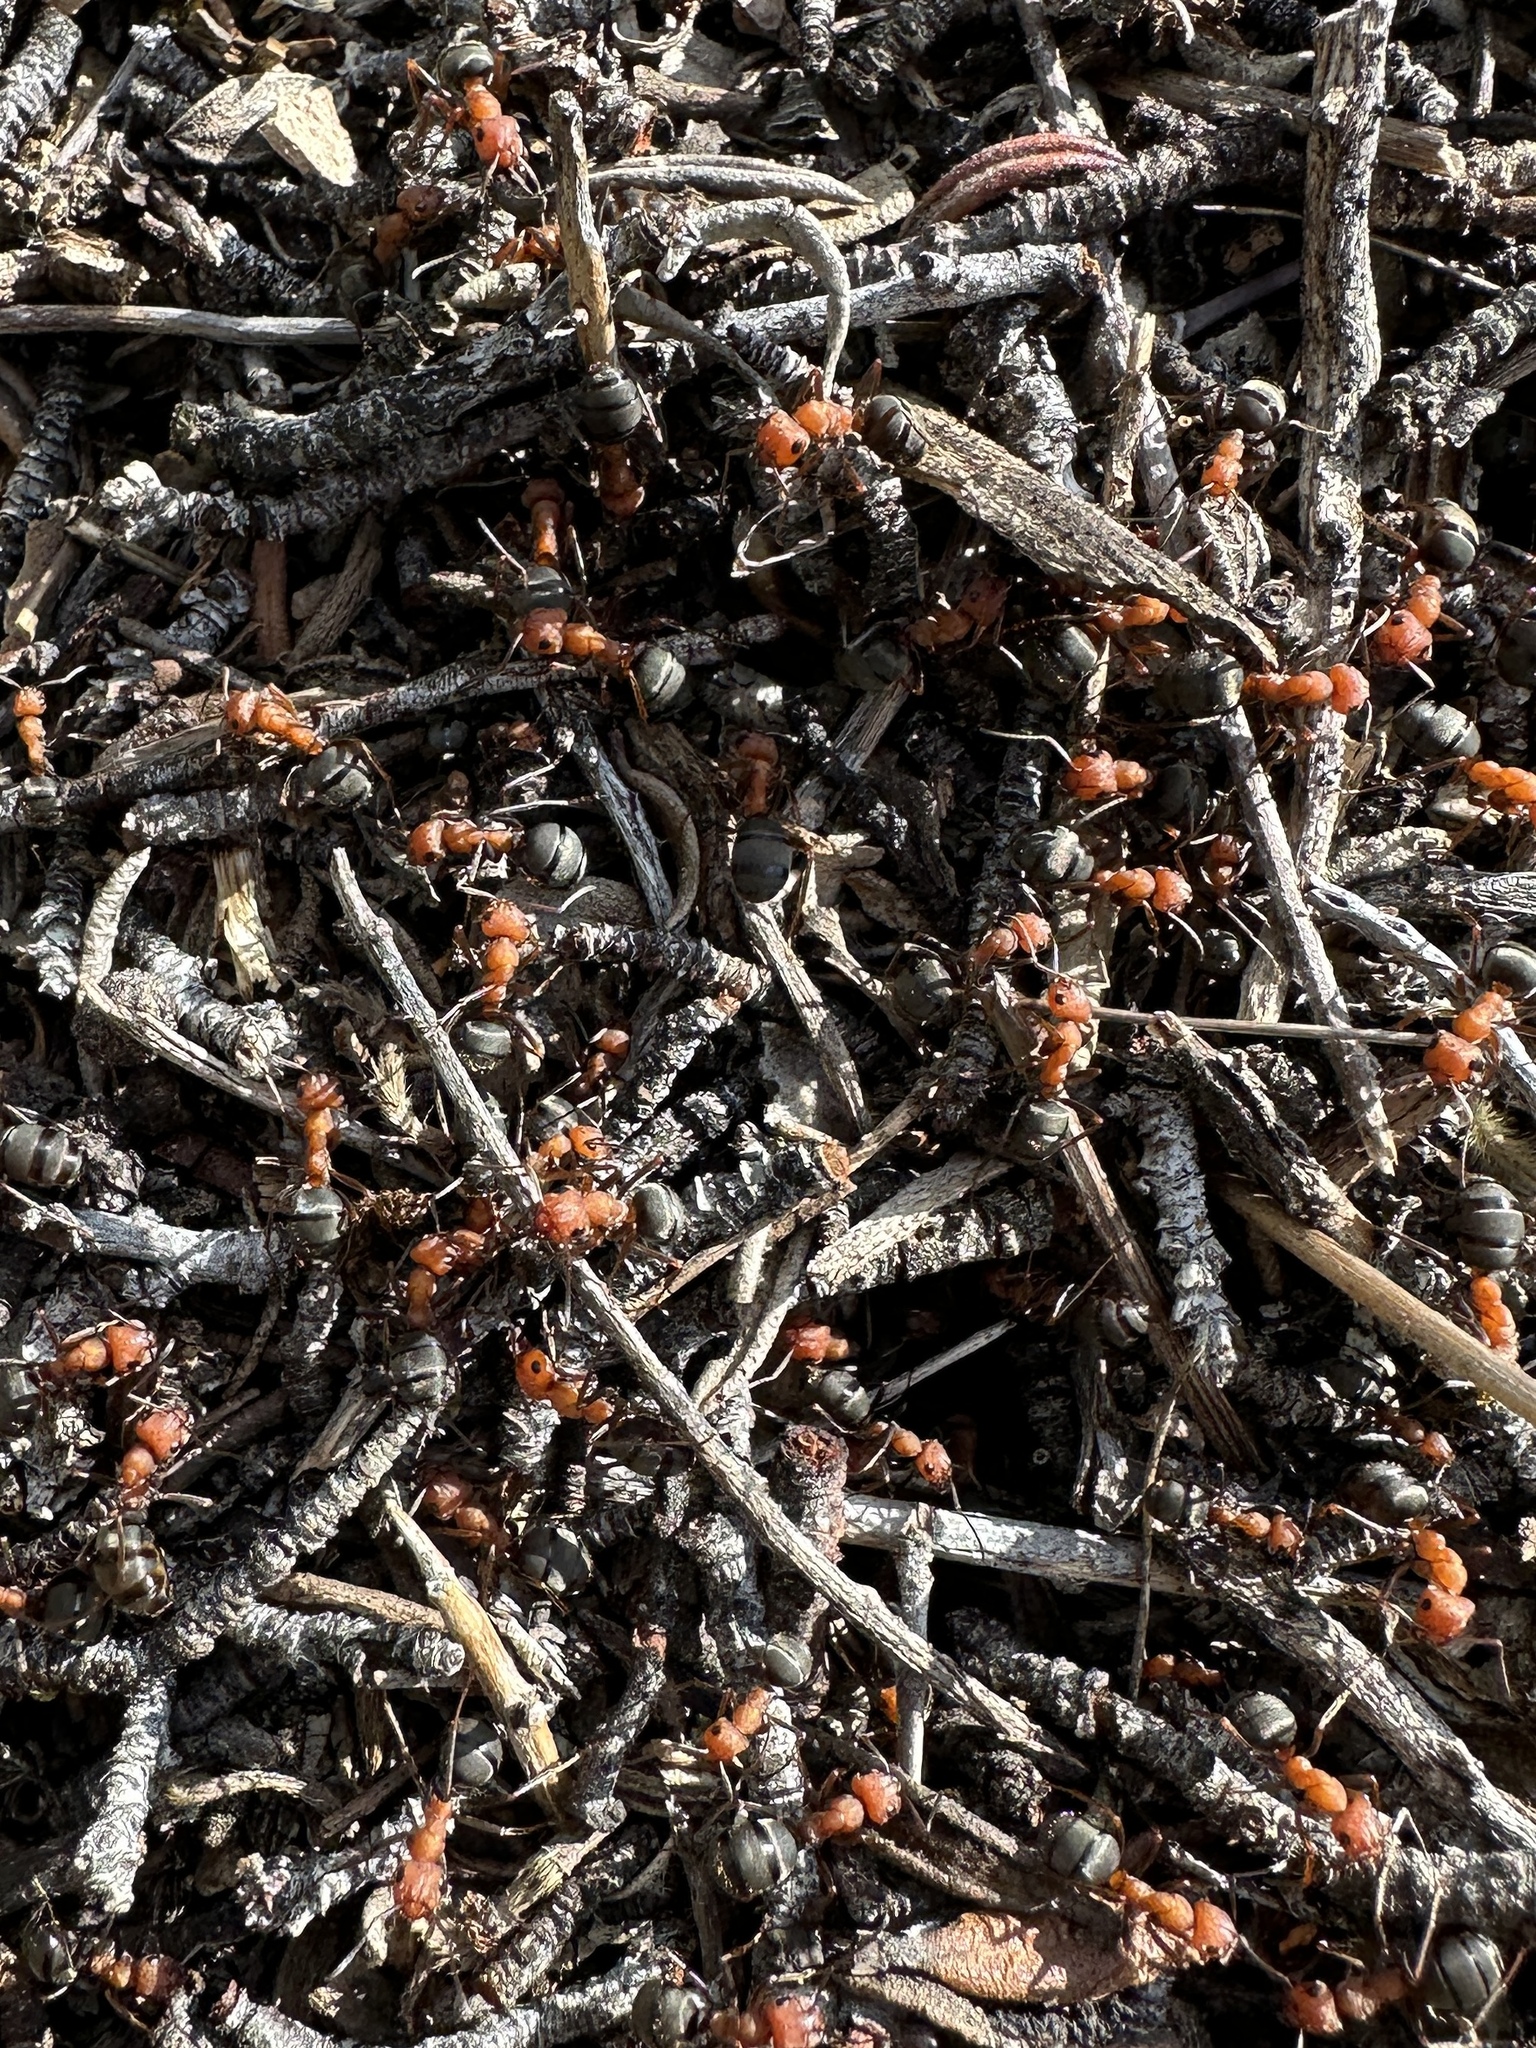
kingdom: Animalia
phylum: Arthropoda
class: Insecta
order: Hymenoptera
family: Formicidae
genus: Formica
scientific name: Formica obscuripes
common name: Western thatching ant
